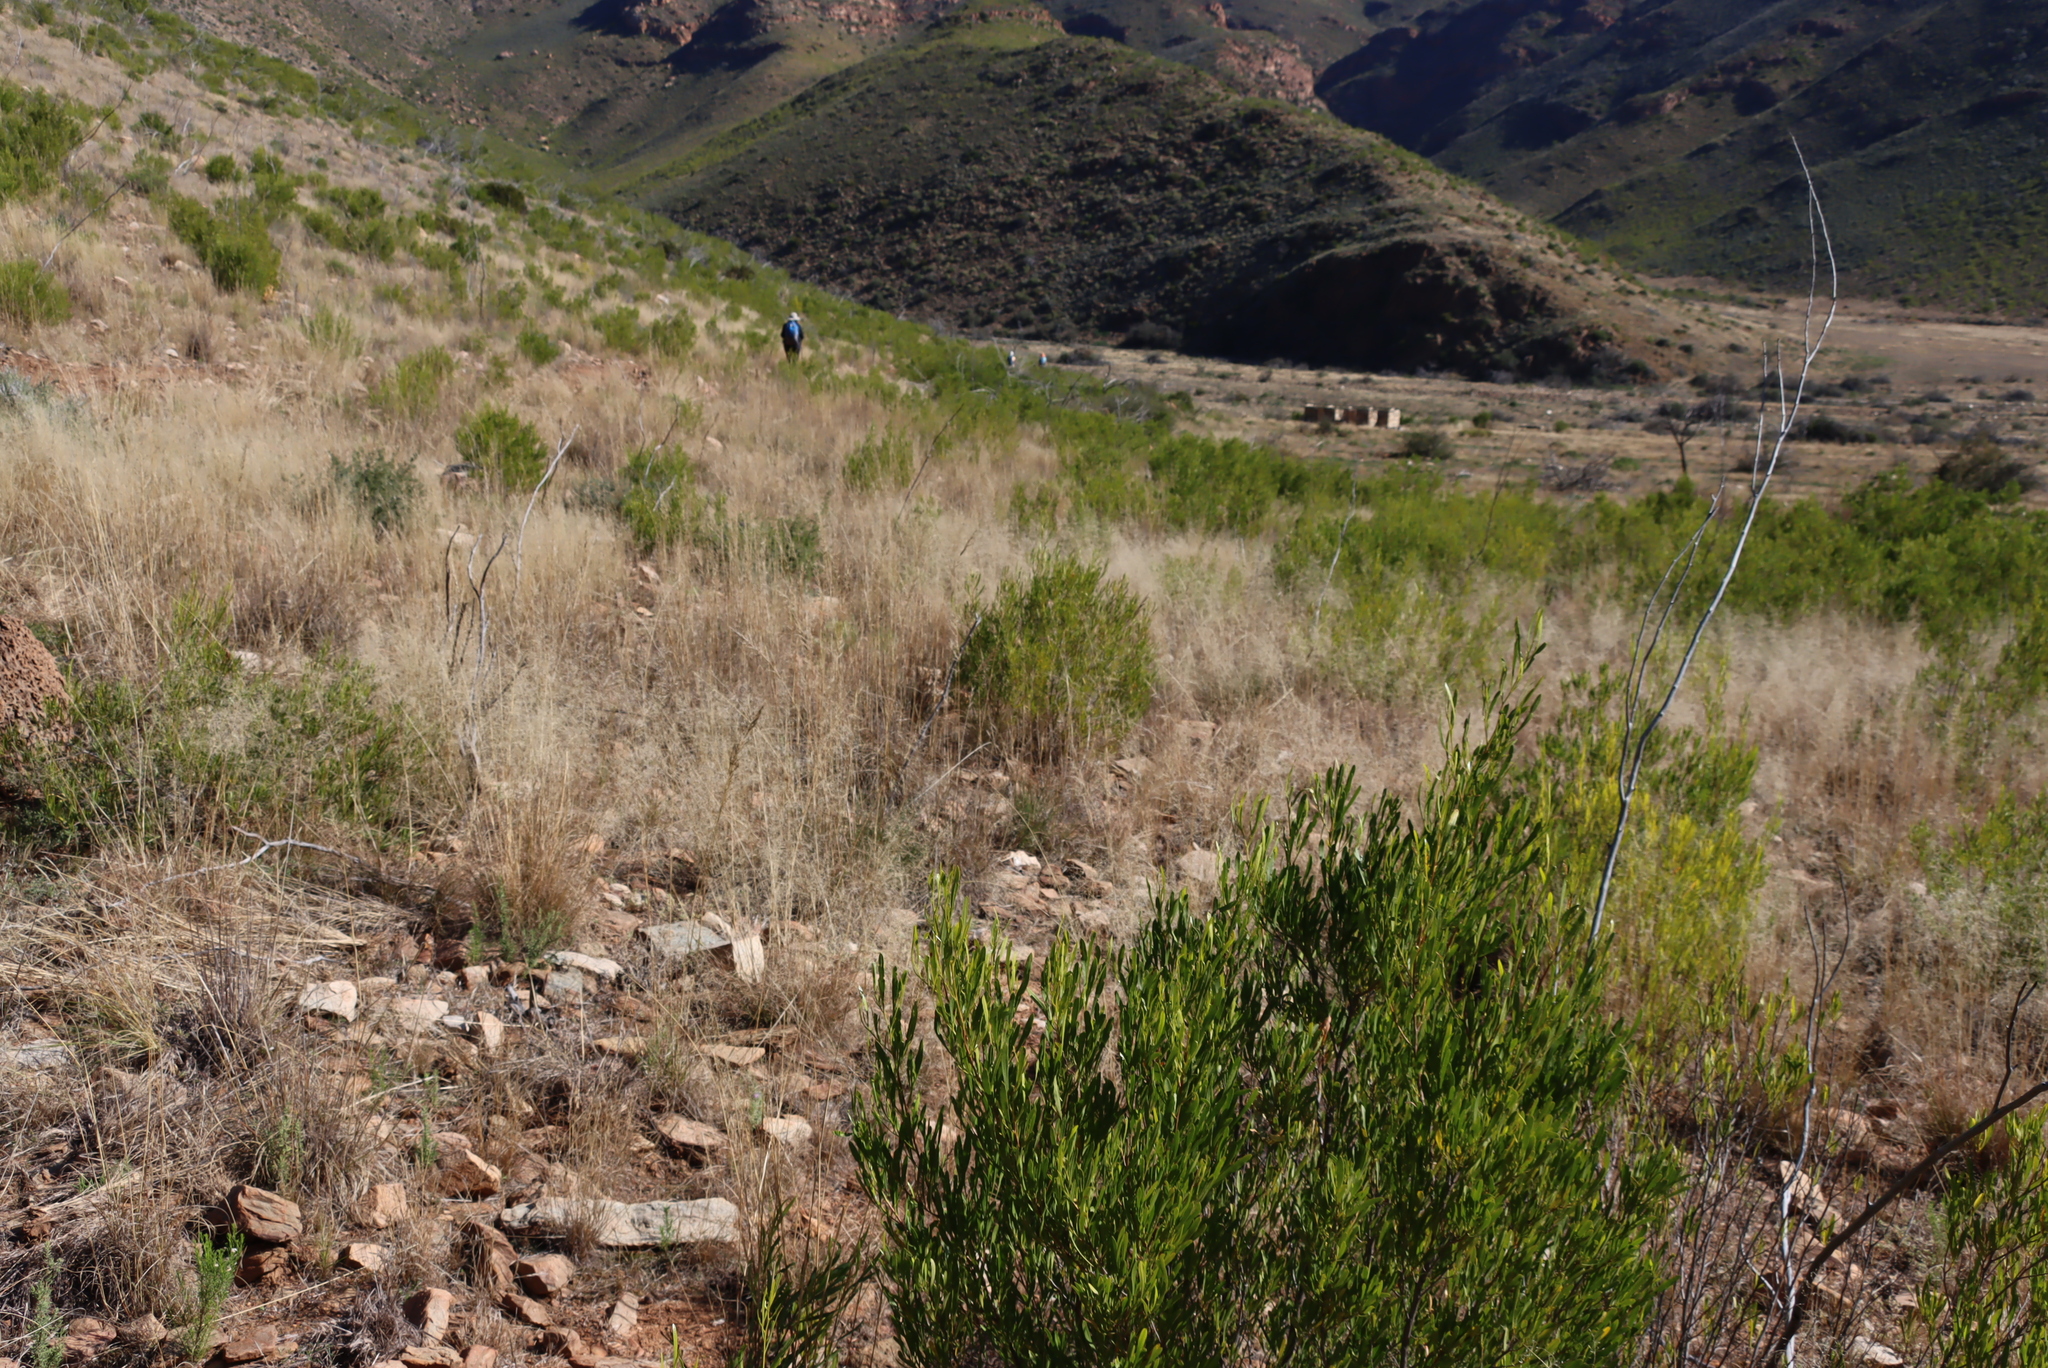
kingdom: Plantae
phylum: Tracheophyta
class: Magnoliopsida
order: Sapindales
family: Sapindaceae
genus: Dodonaea
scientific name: Dodonaea viscosa
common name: Hopbush
